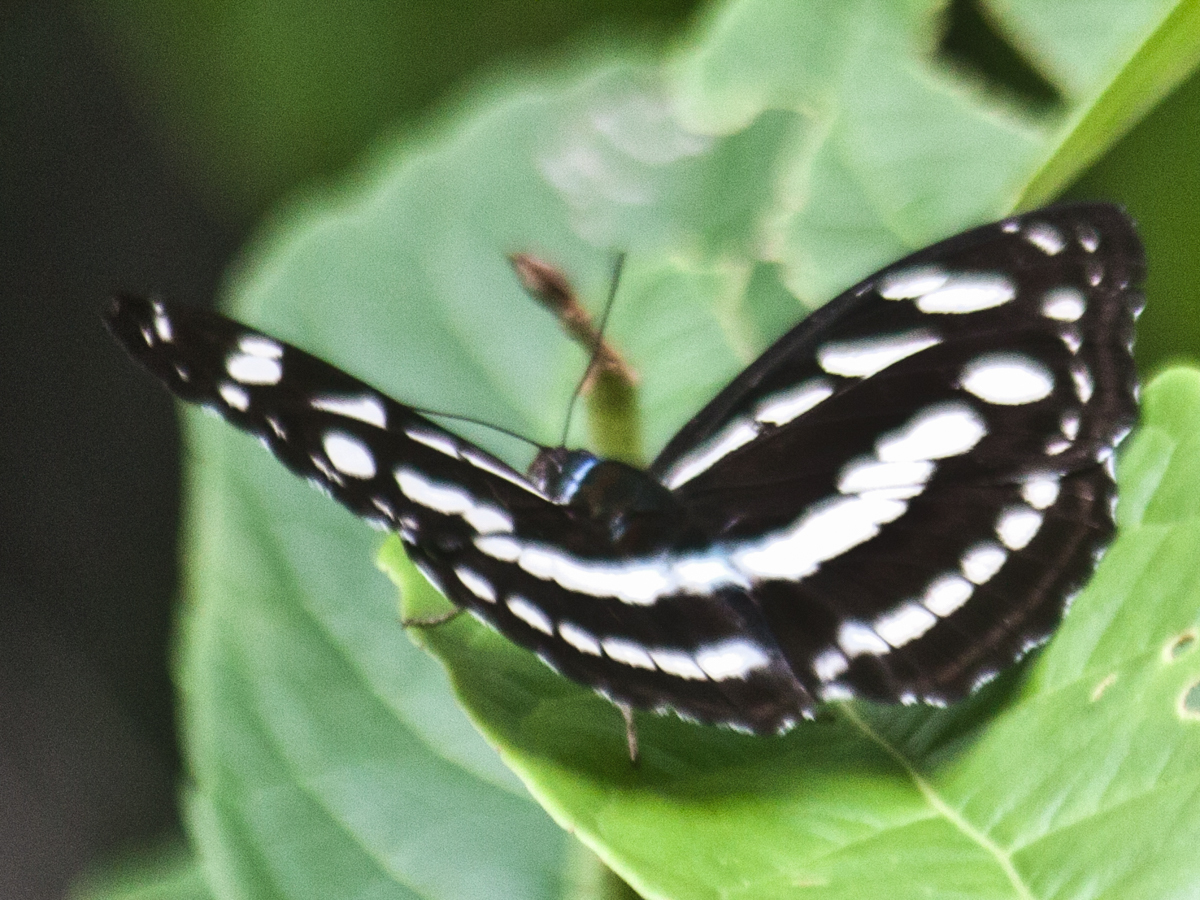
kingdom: Animalia
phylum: Arthropoda
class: Insecta
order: Lepidoptera
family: Nymphalidae
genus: Pantoporia
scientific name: Pantoporia larymna
